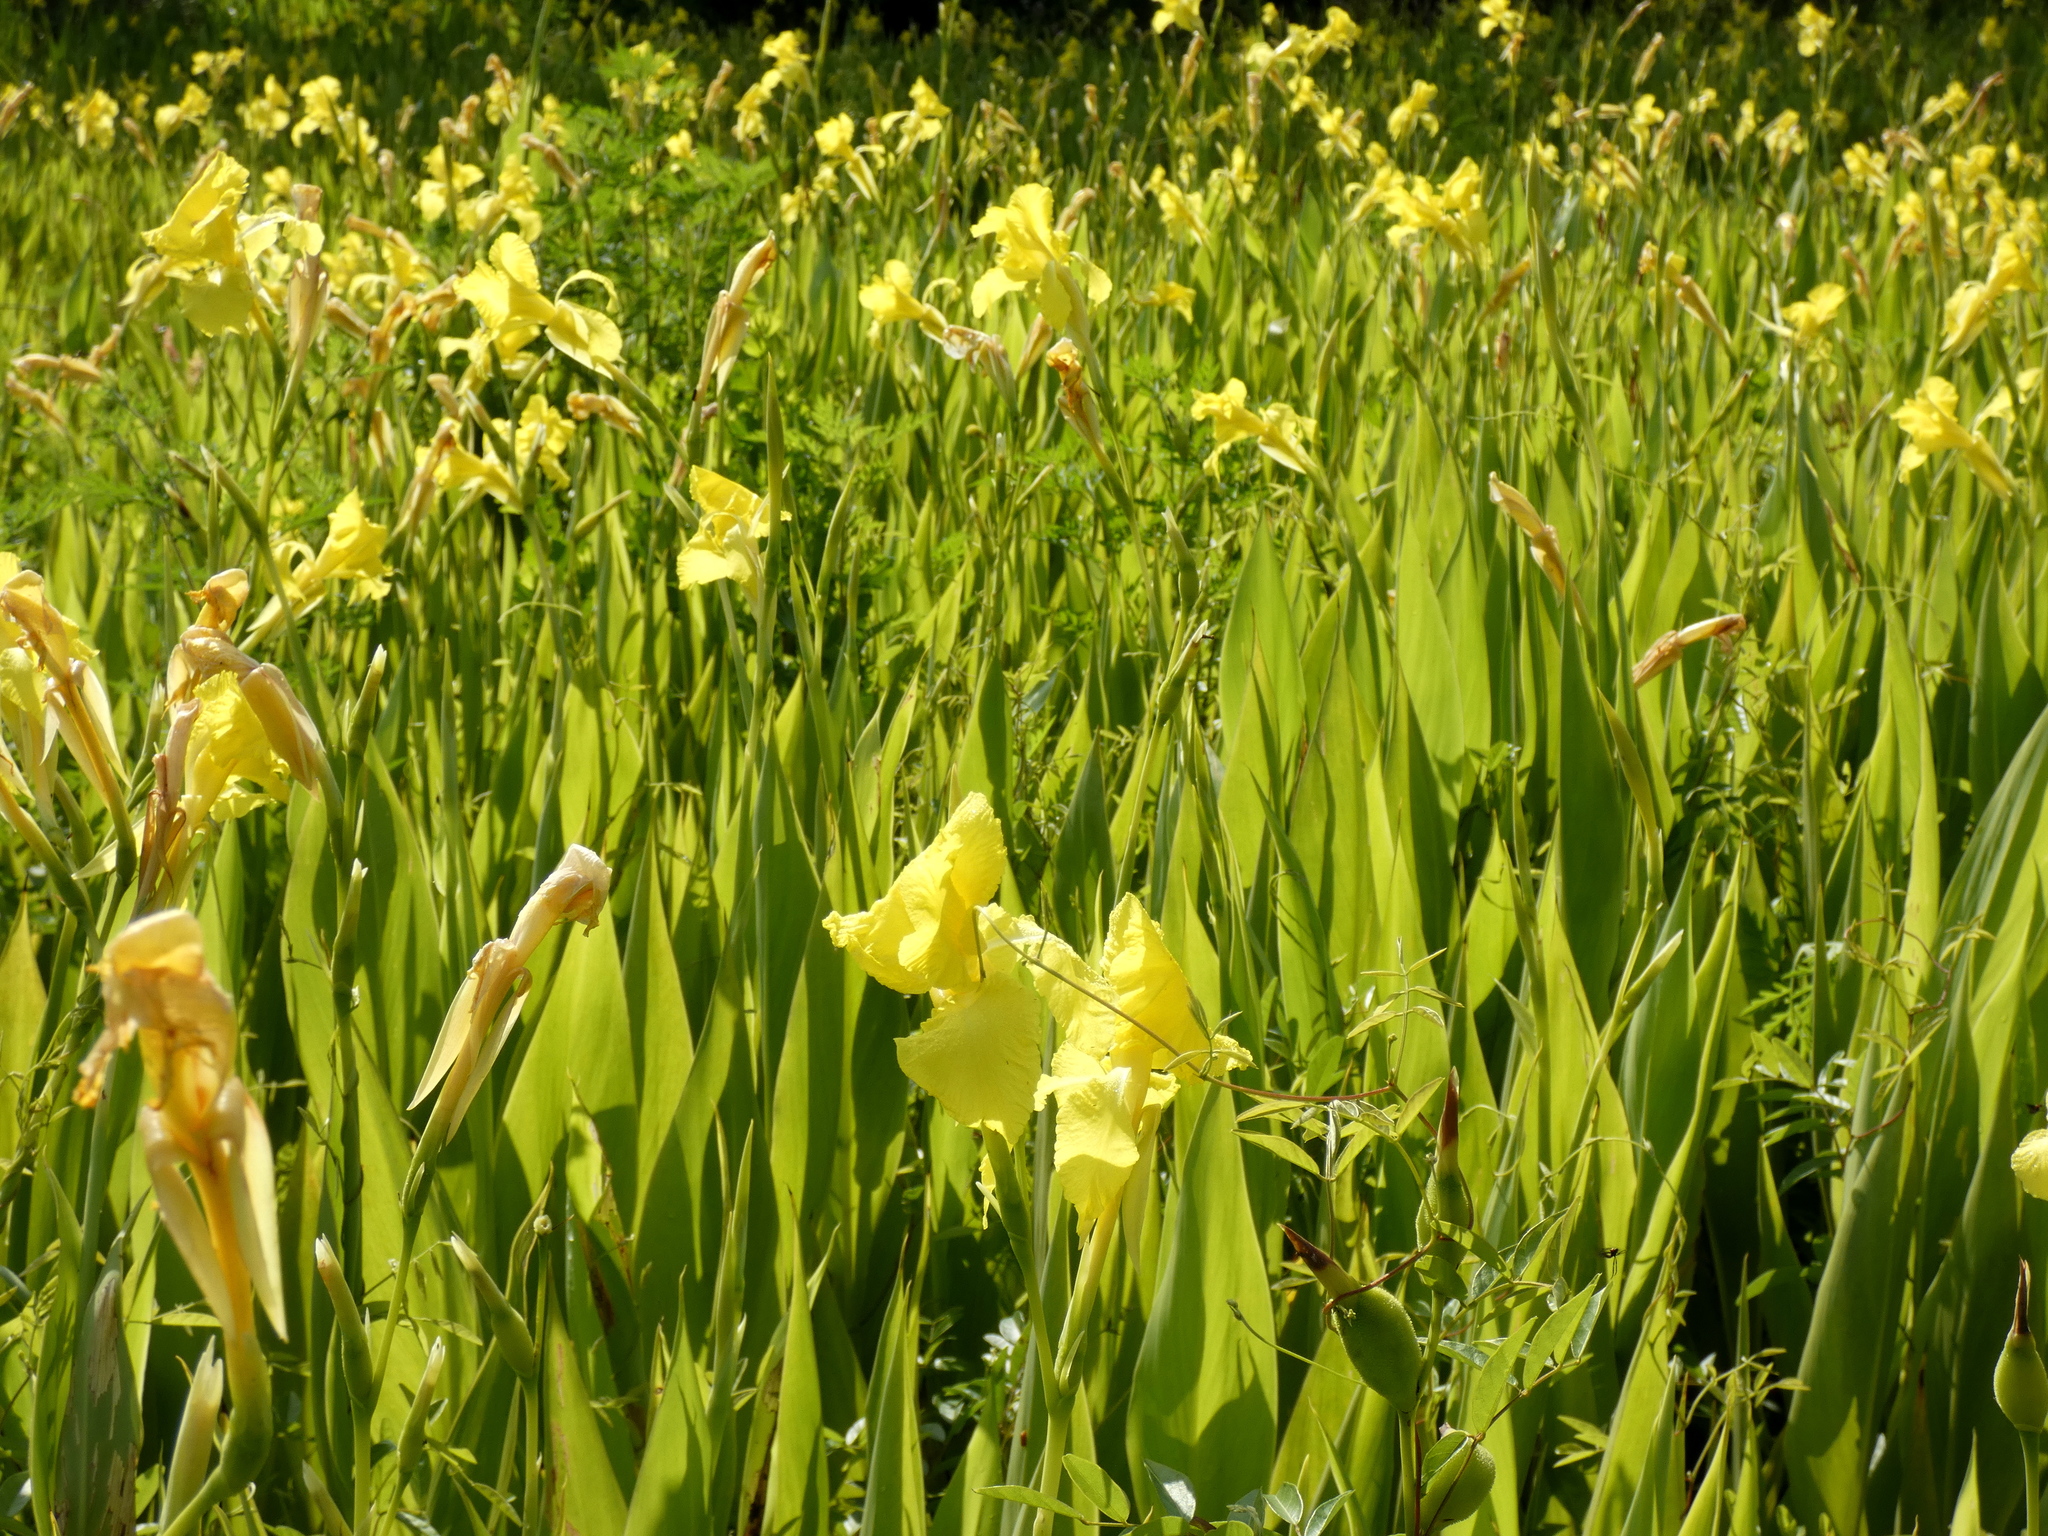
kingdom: Plantae
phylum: Tracheophyta
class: Liliopsida
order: Zingiberales
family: Cannaceae
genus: Canna
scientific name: Canna flaccida
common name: Bandana-of-the-everglades
